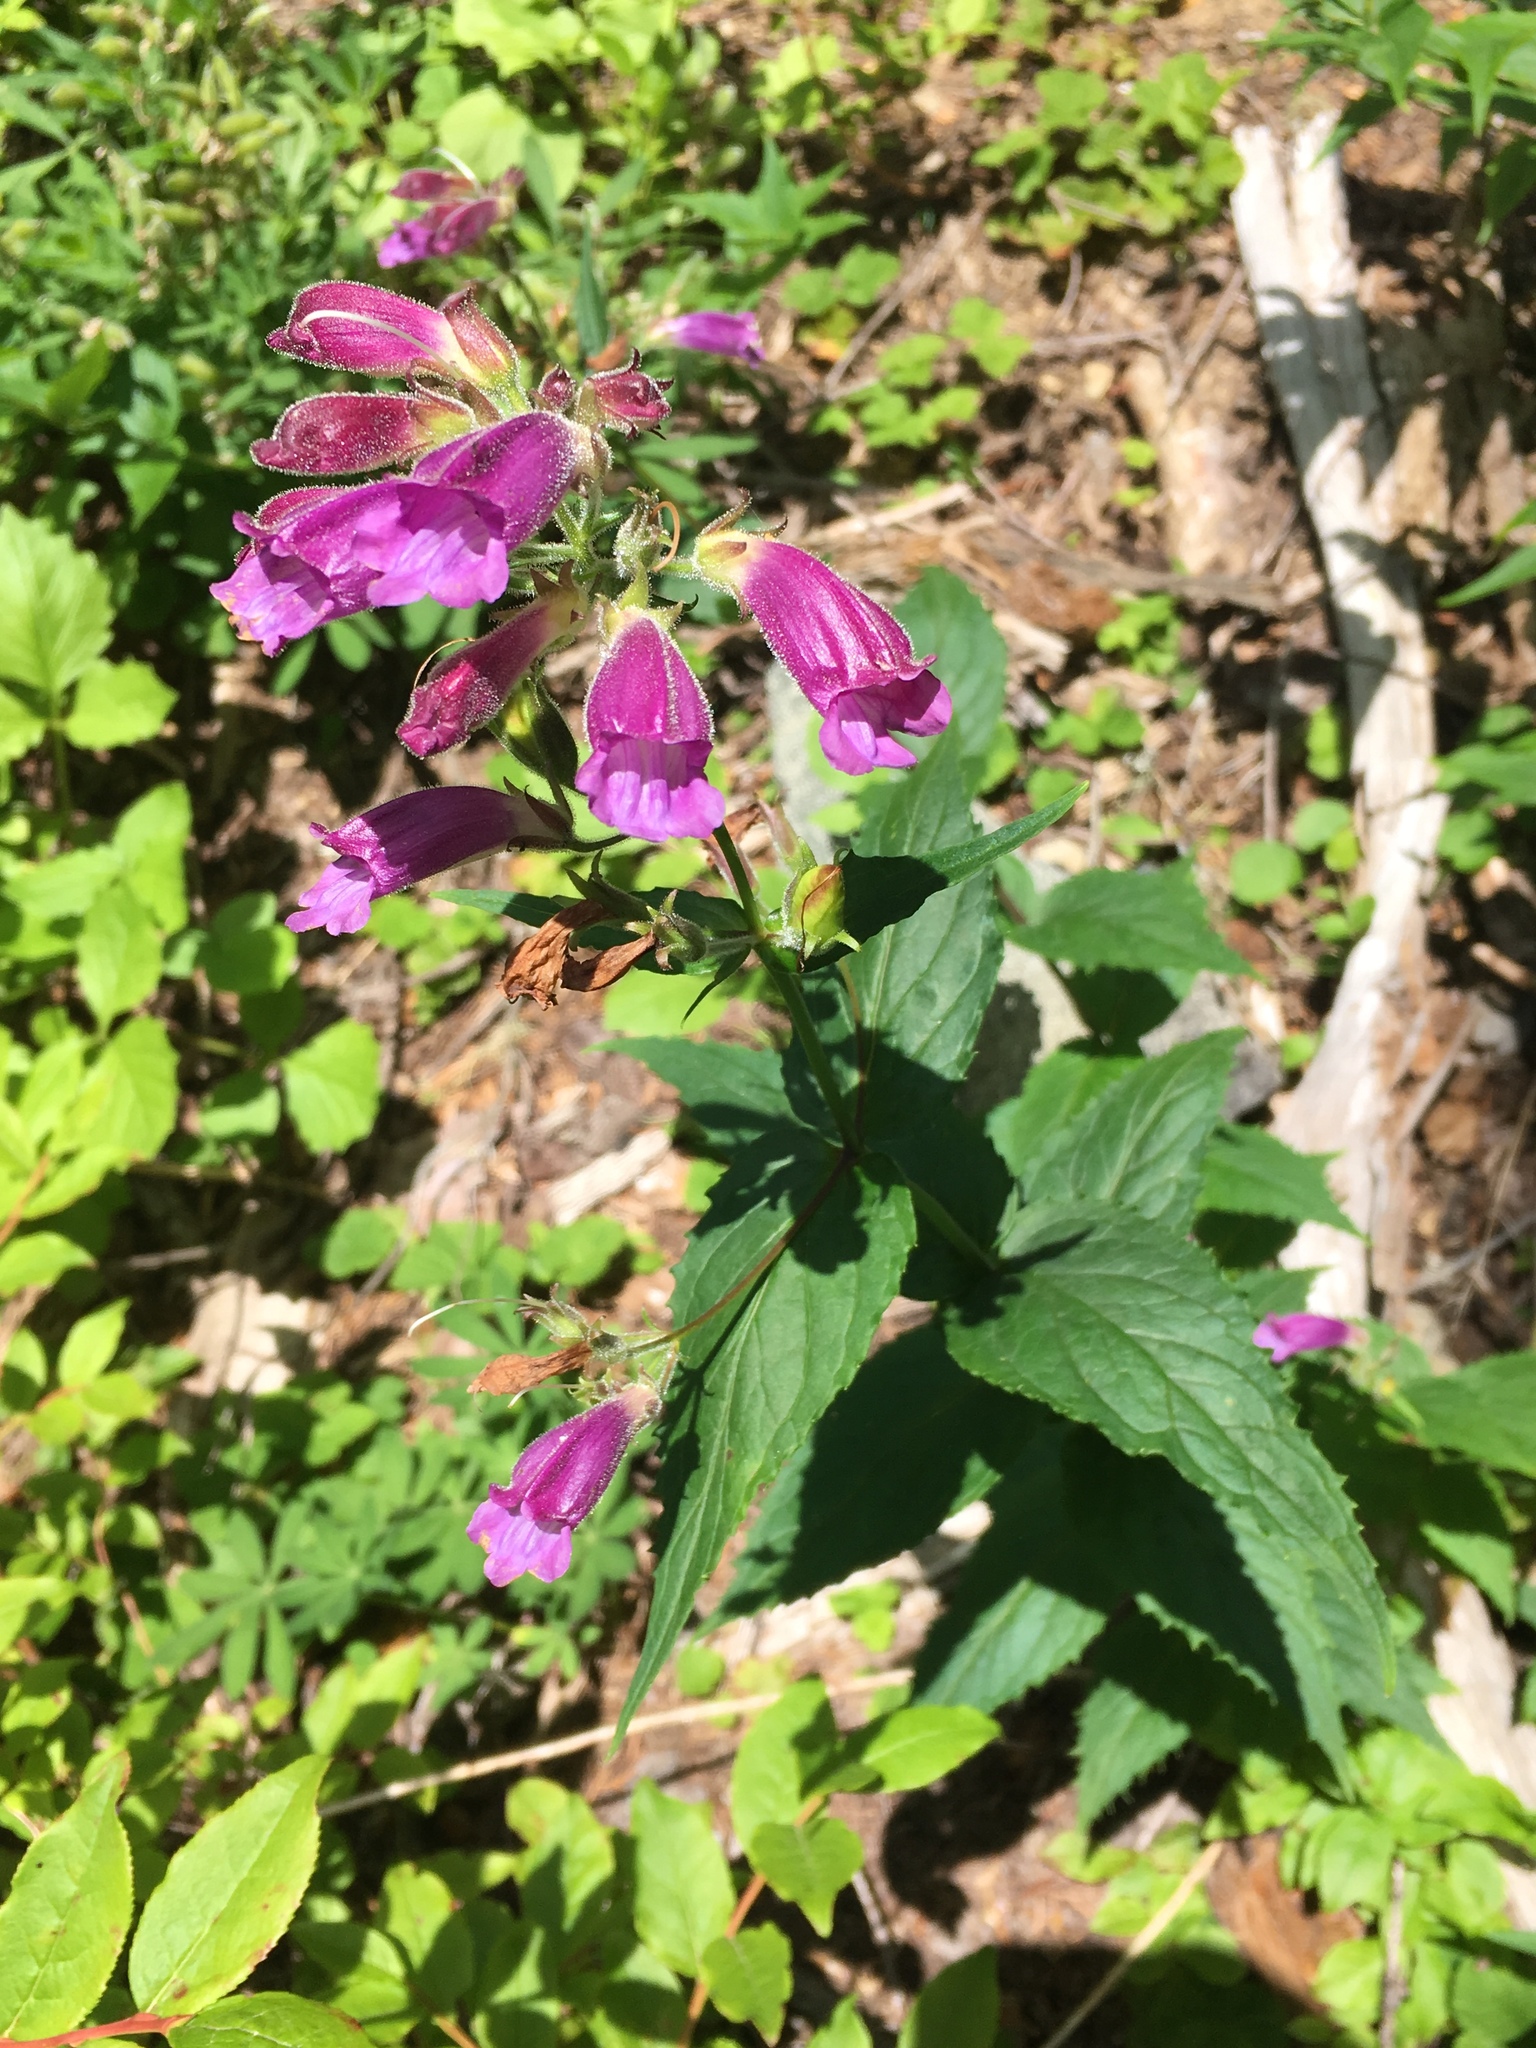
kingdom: Plantae
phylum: Tracheophyta
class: Magnoliopsida
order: Lamiales
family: Plantaginaceae
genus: Nothochelone
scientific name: Nothochelone nemorosa
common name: Woodland beardtongue
